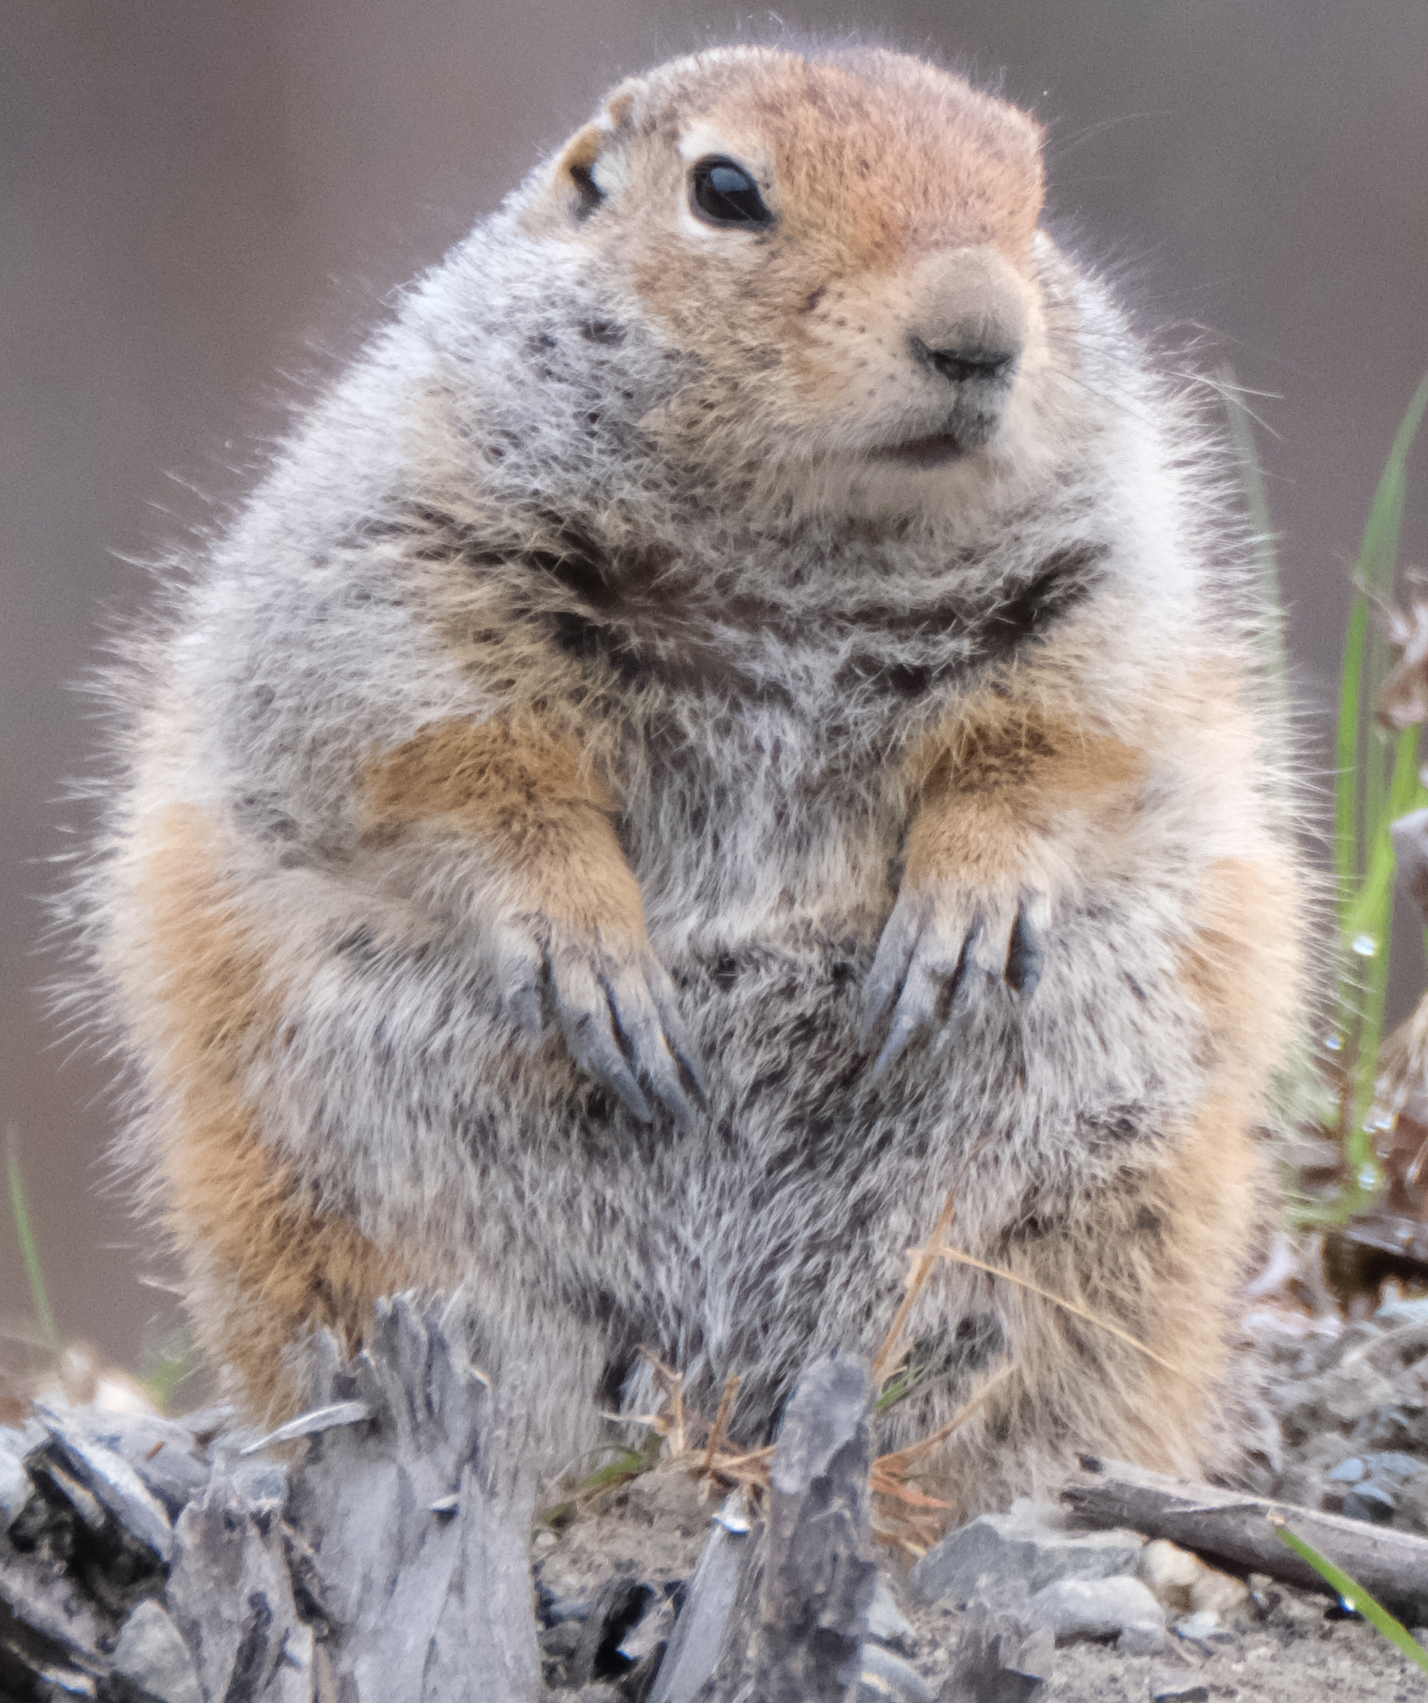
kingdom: Animalia
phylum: Chordata
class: Mammalia
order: Rodentia
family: Sciuridae
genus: Urocitellus
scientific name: Urocitellus parryii
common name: Arctic ground squirrel
